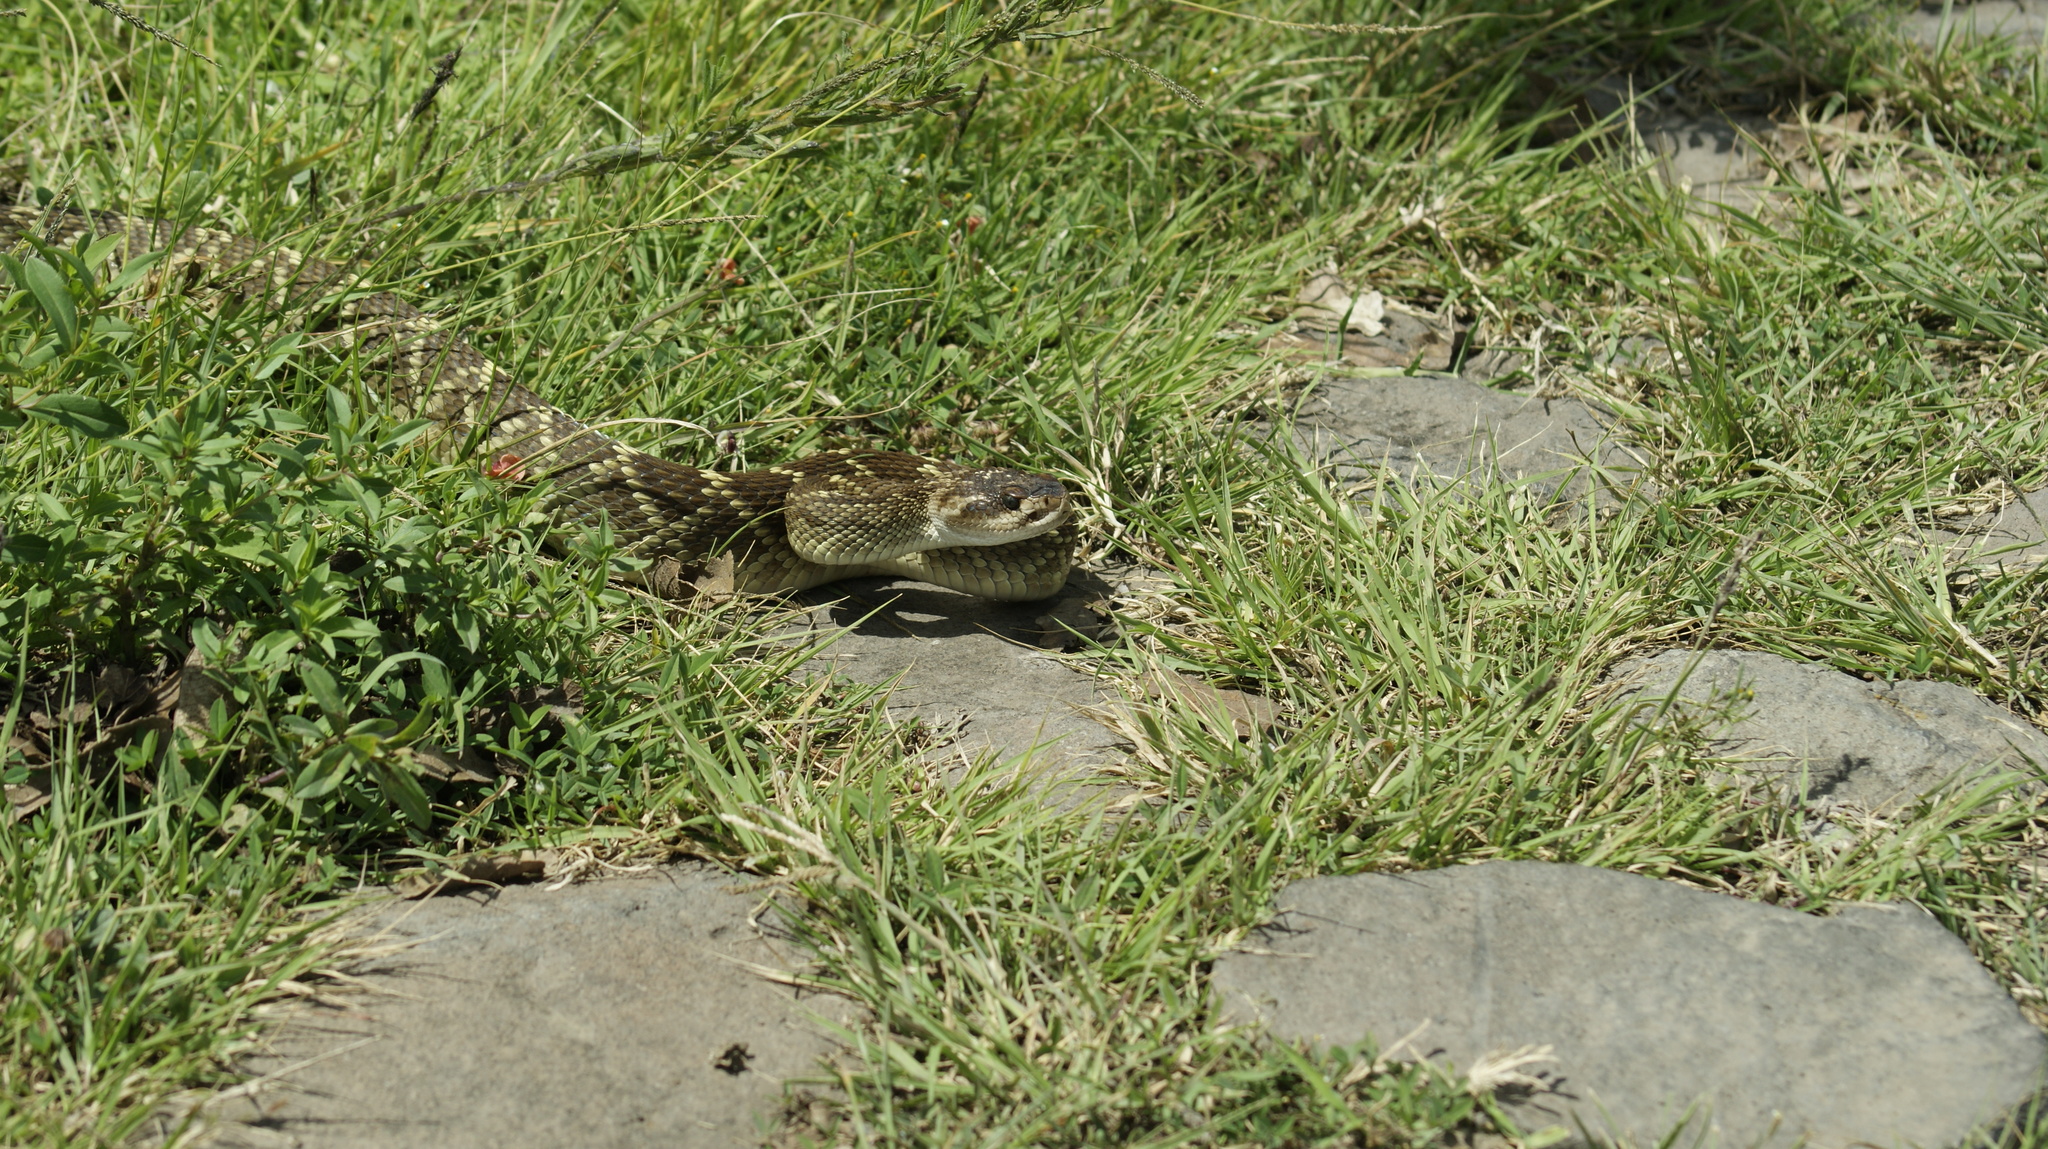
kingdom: Animalia
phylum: Chordata
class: Squamata
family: Viperidae
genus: Crotalus
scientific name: Crotalus molossus
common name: Black tailed rattlesnake
